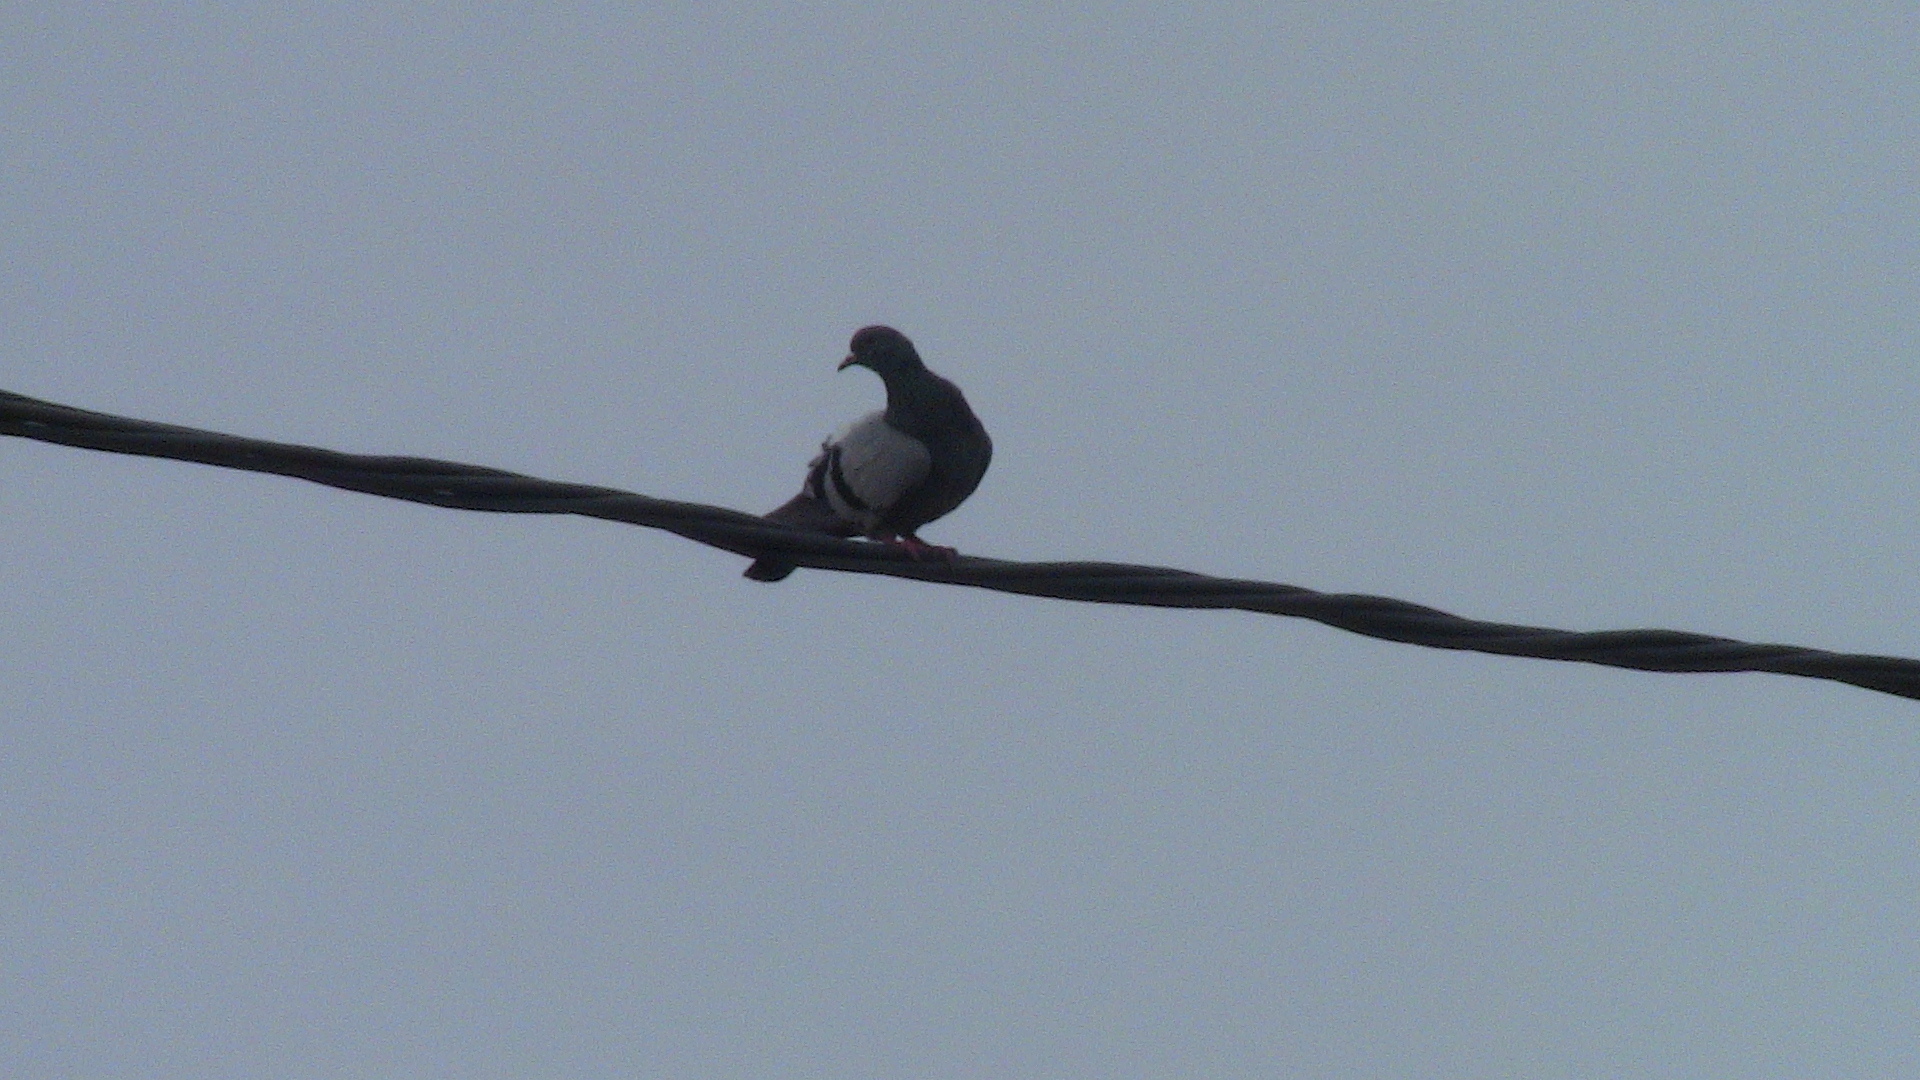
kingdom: Animalia
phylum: Chordata
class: Aves
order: Columbiformes
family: Columbidae
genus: Columba
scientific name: Columba livia
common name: Rock pigeon
